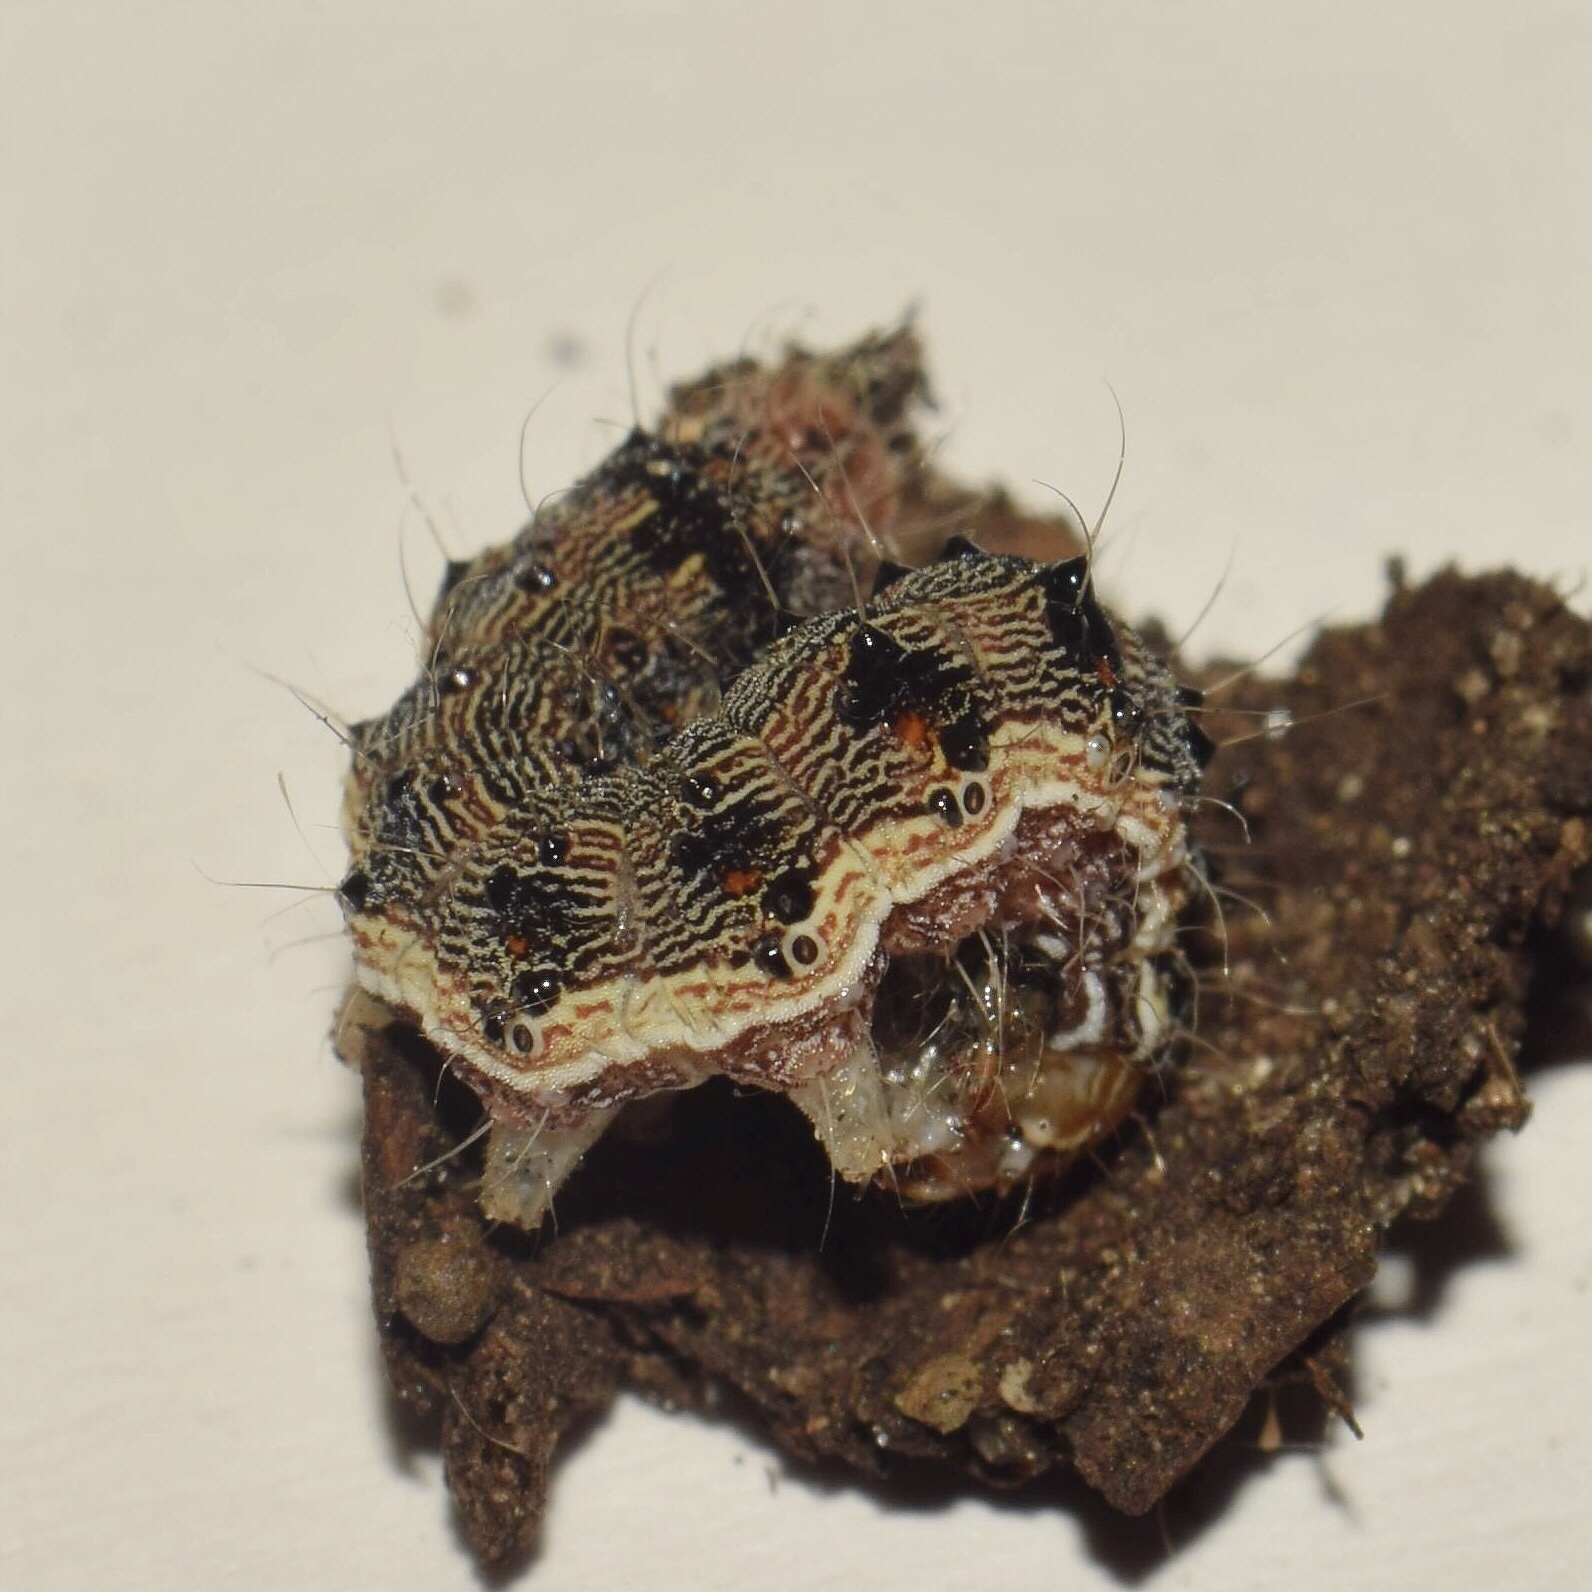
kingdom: Animalia
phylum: Arthropoda
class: Insecta
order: Lepidoptera
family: Noctuidae
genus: Helicoverpa
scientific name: Helicoverpa armigera
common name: Cotton bollworm
